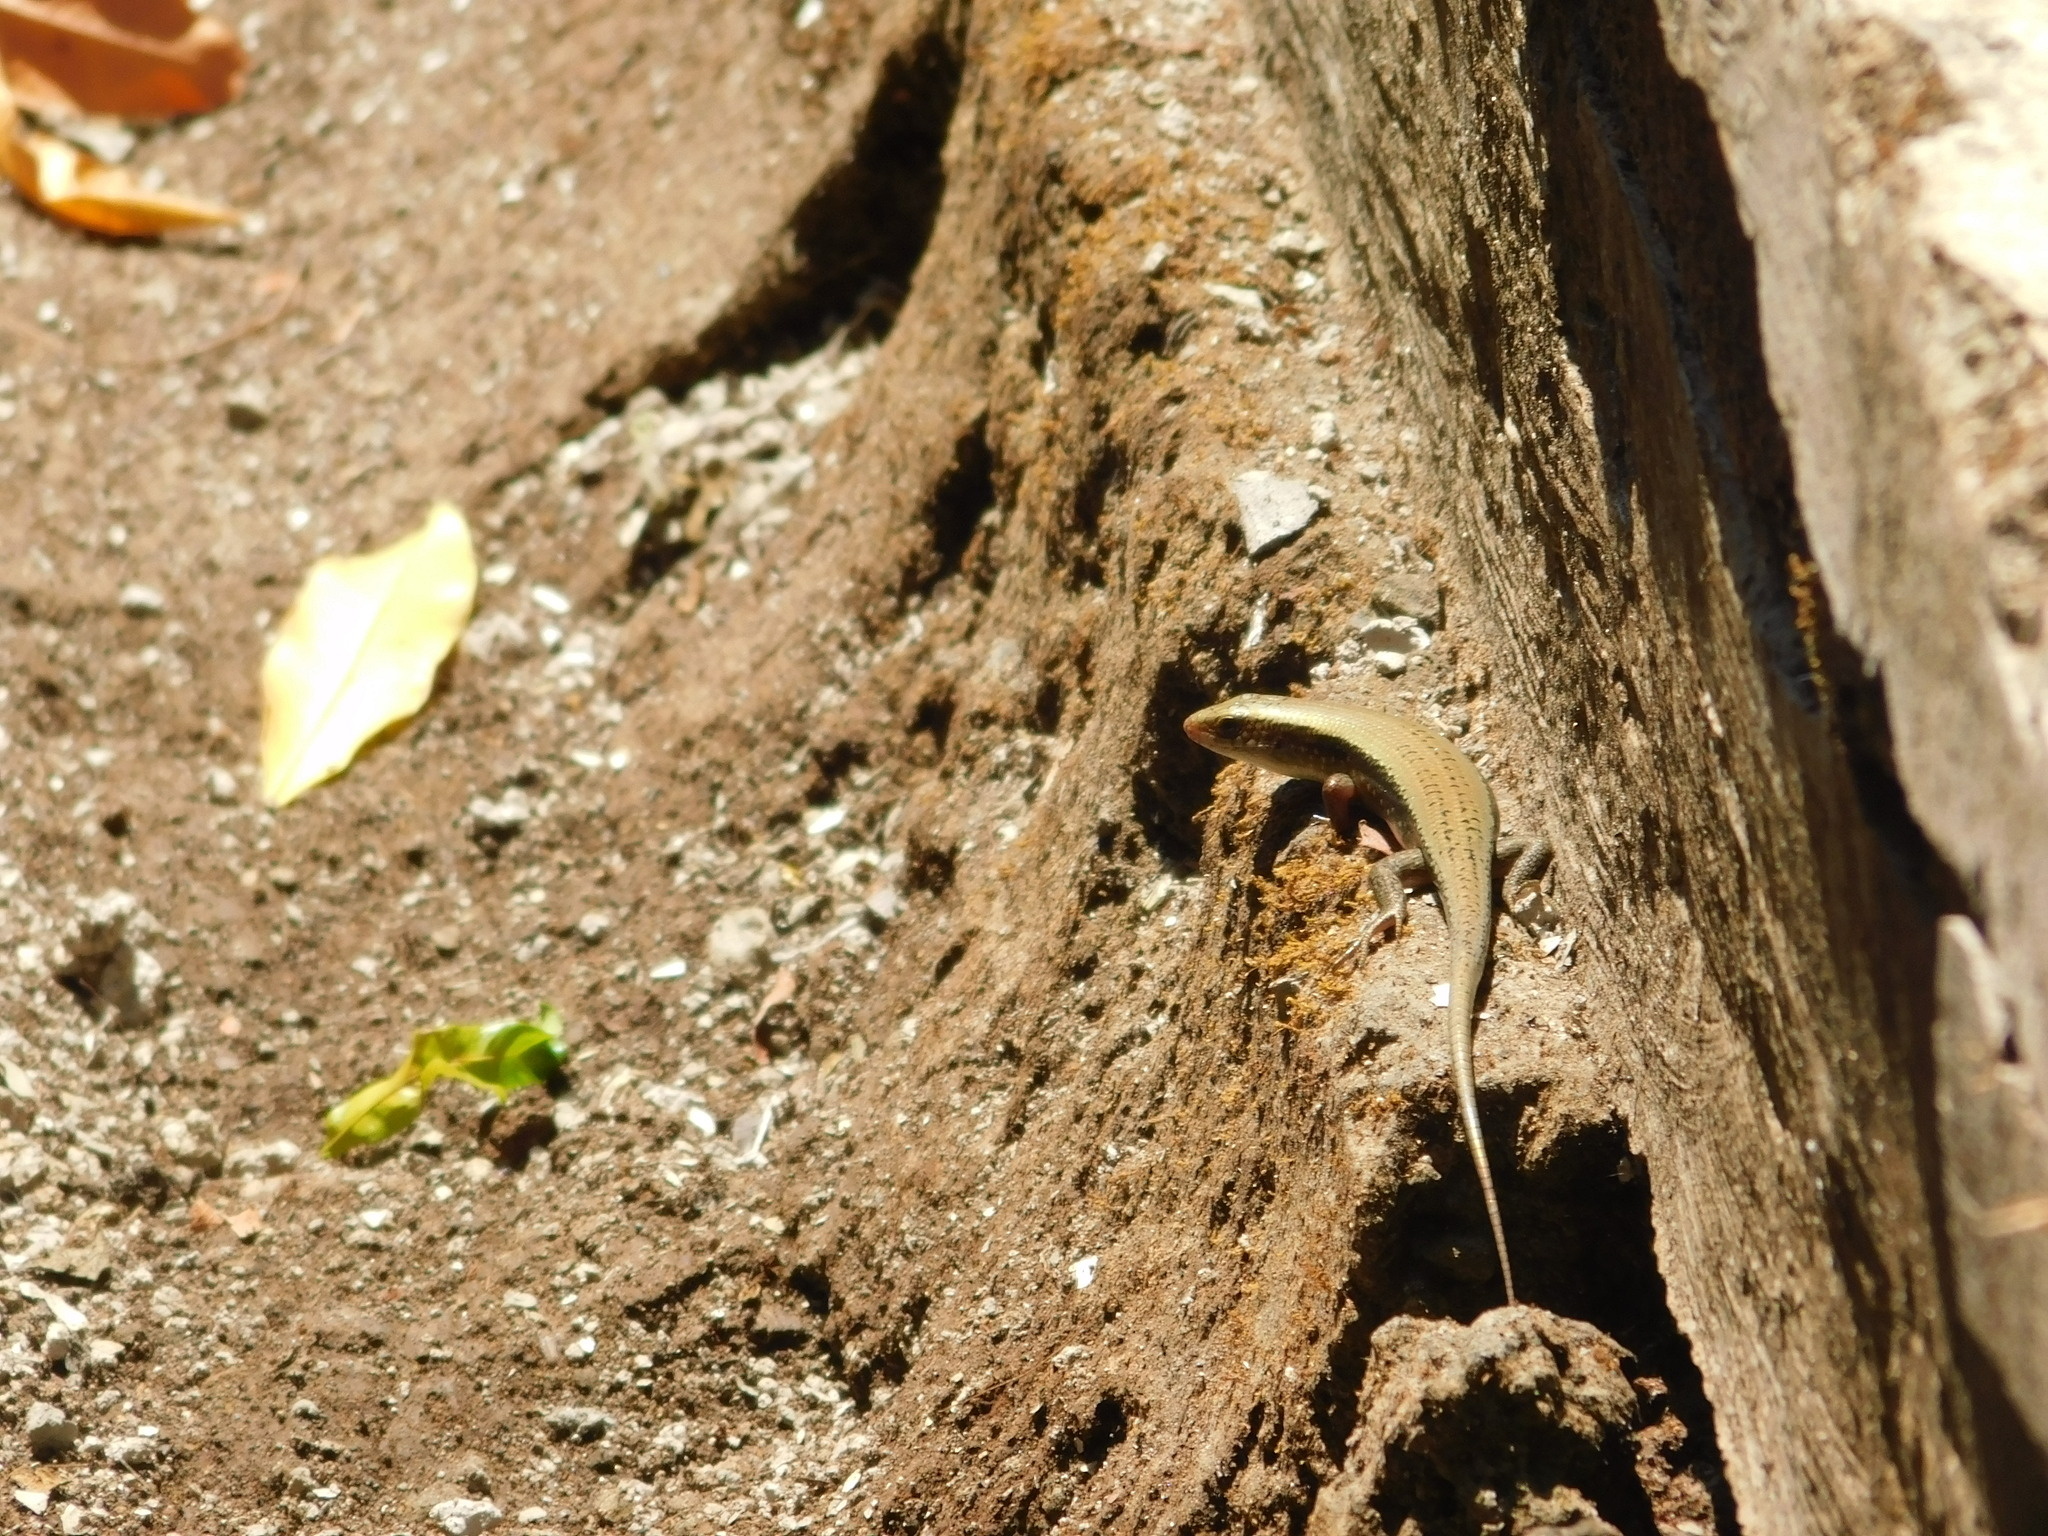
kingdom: Animalia
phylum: Chordata
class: Squamata
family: Scincidae
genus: Eutropis
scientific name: Eutropis multifasciata
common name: Common mabuya
